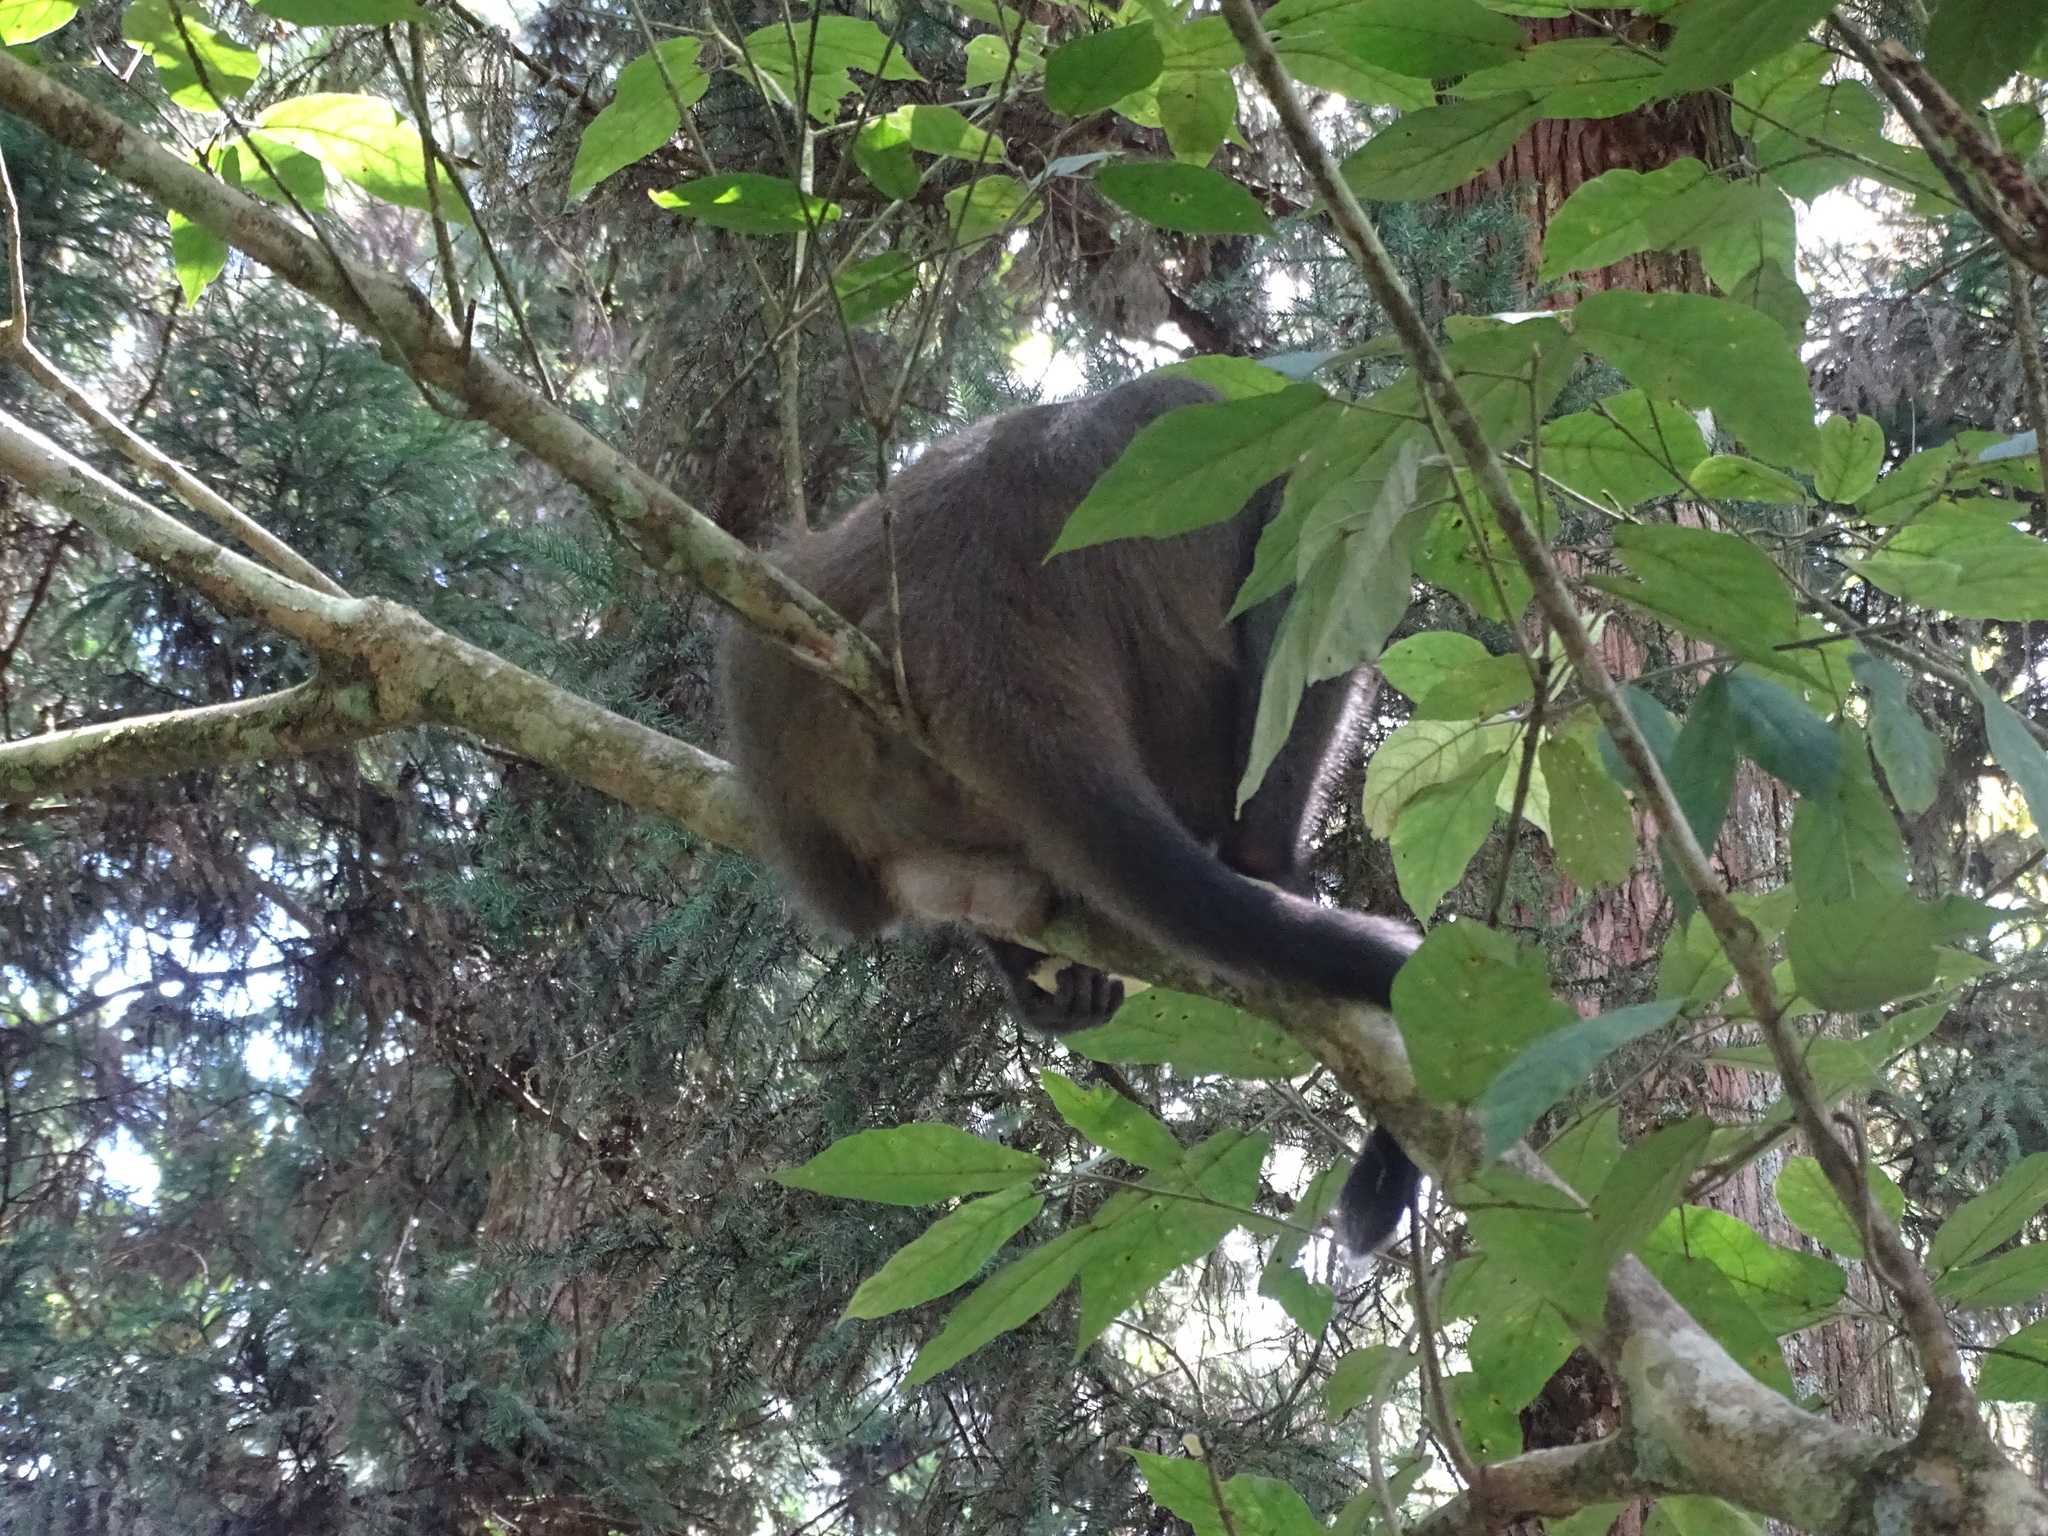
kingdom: Animalia
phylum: Chordata
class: Mammalia
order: Primates
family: Cercopithecidae
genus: Macaca
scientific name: Macaca cyclopis
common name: Formosan rock macaque
